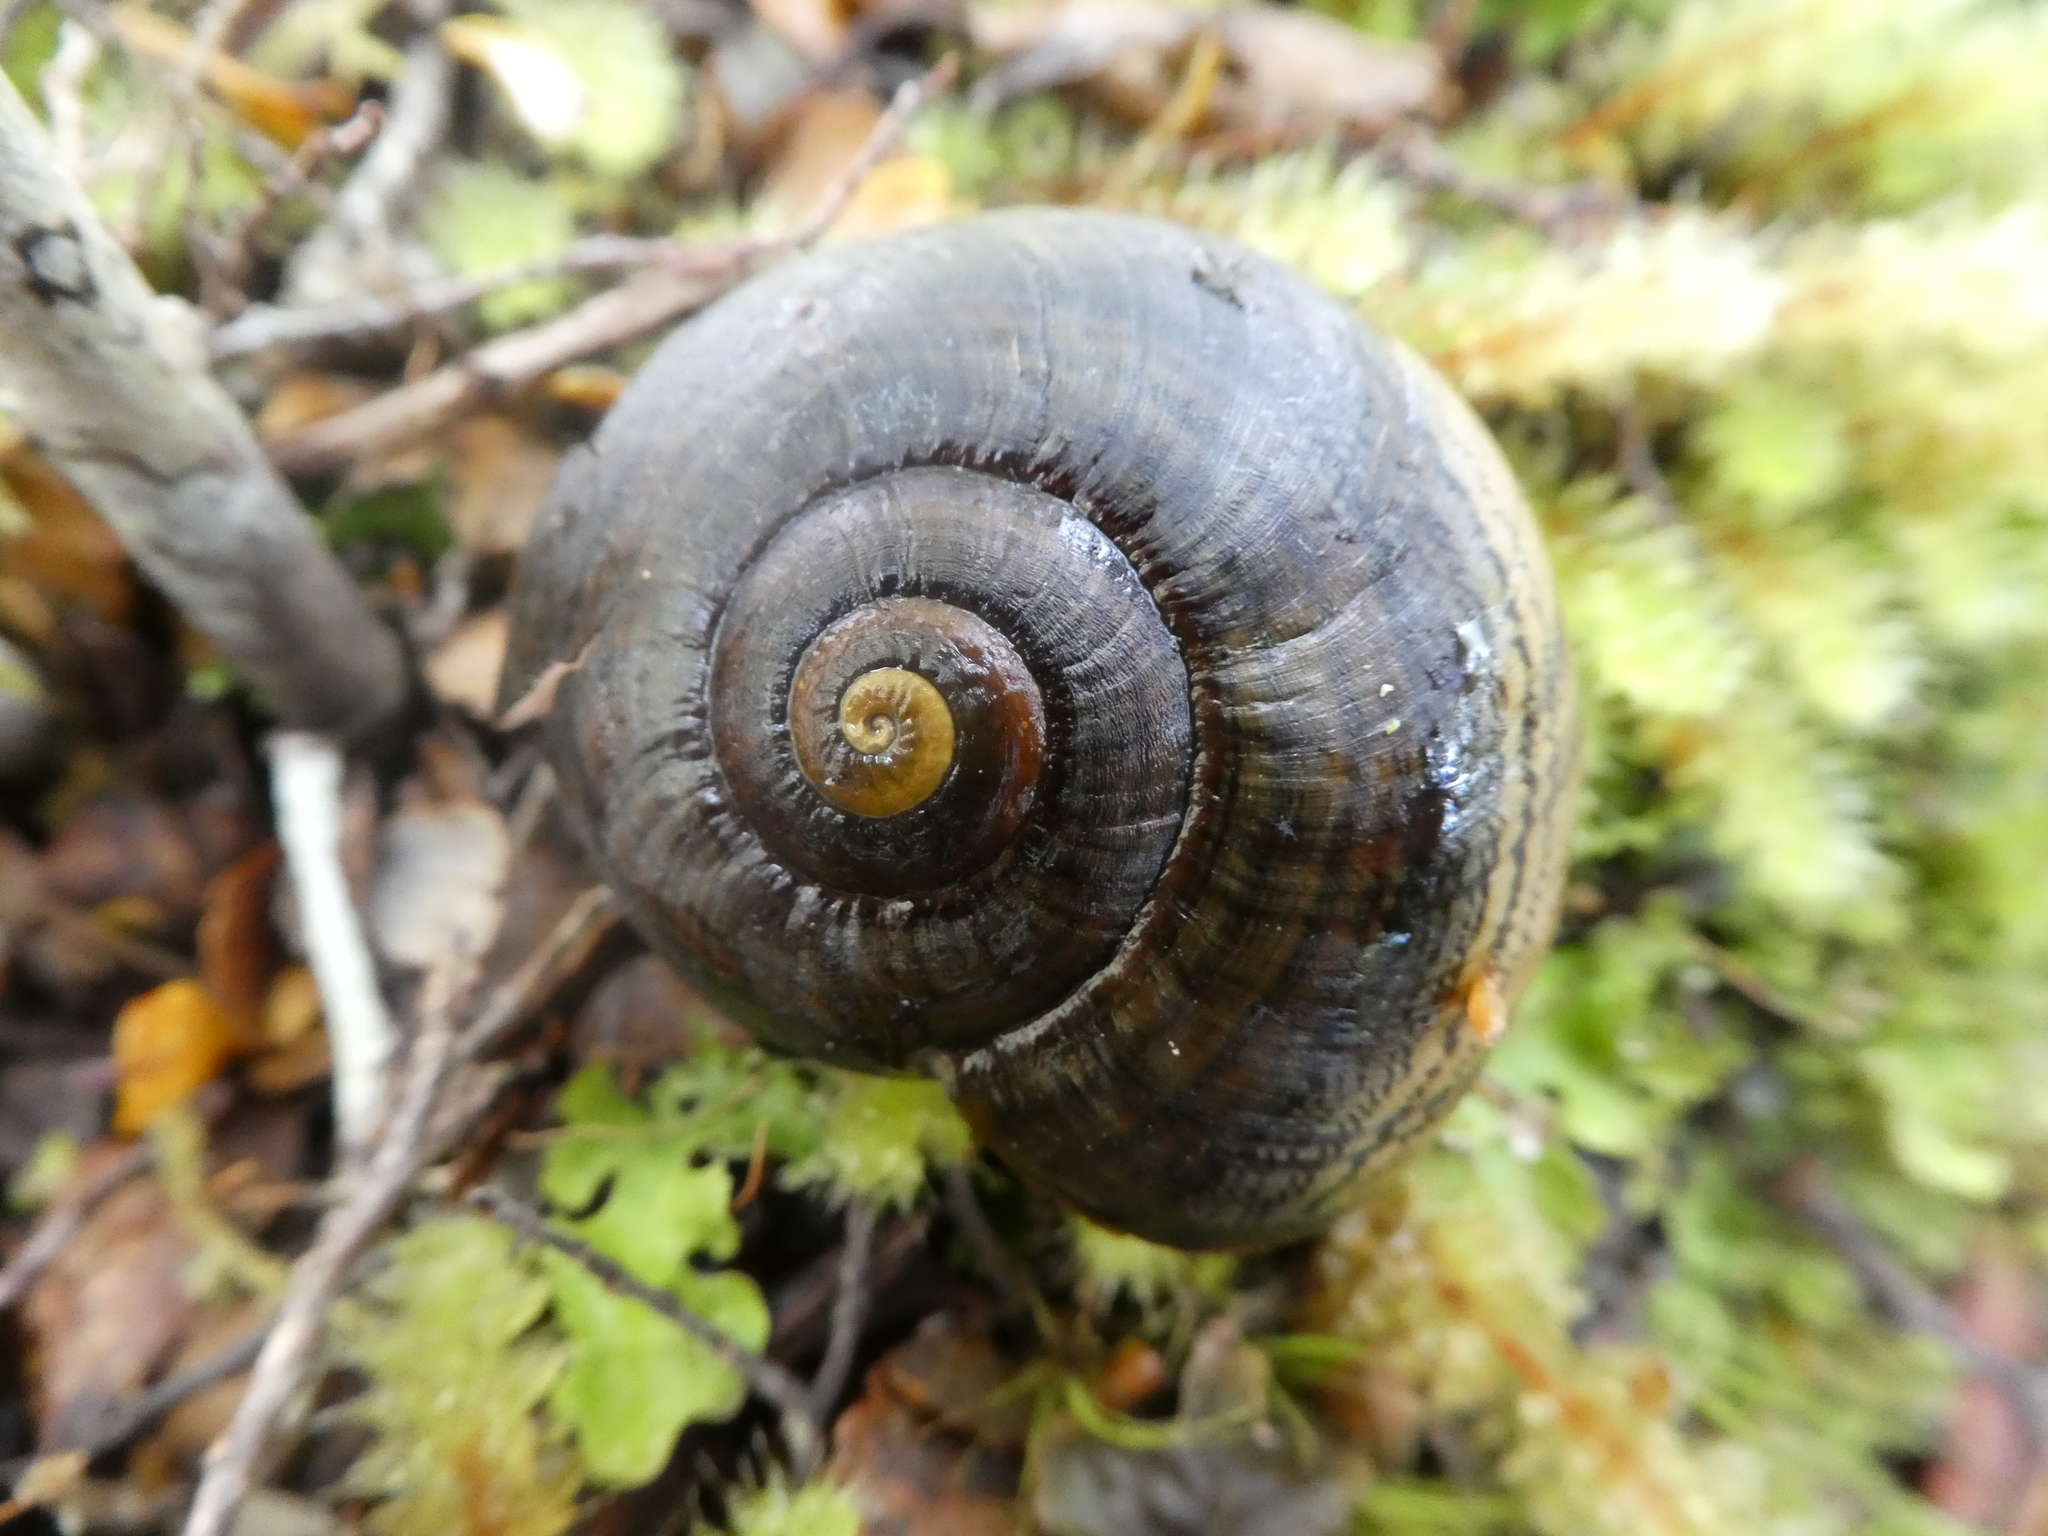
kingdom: Animalia
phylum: Mollusca
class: Gastropoda
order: Stylommatophora
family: Rhytididae
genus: Powelliphanta
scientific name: Powelliphanta hochstetteri
